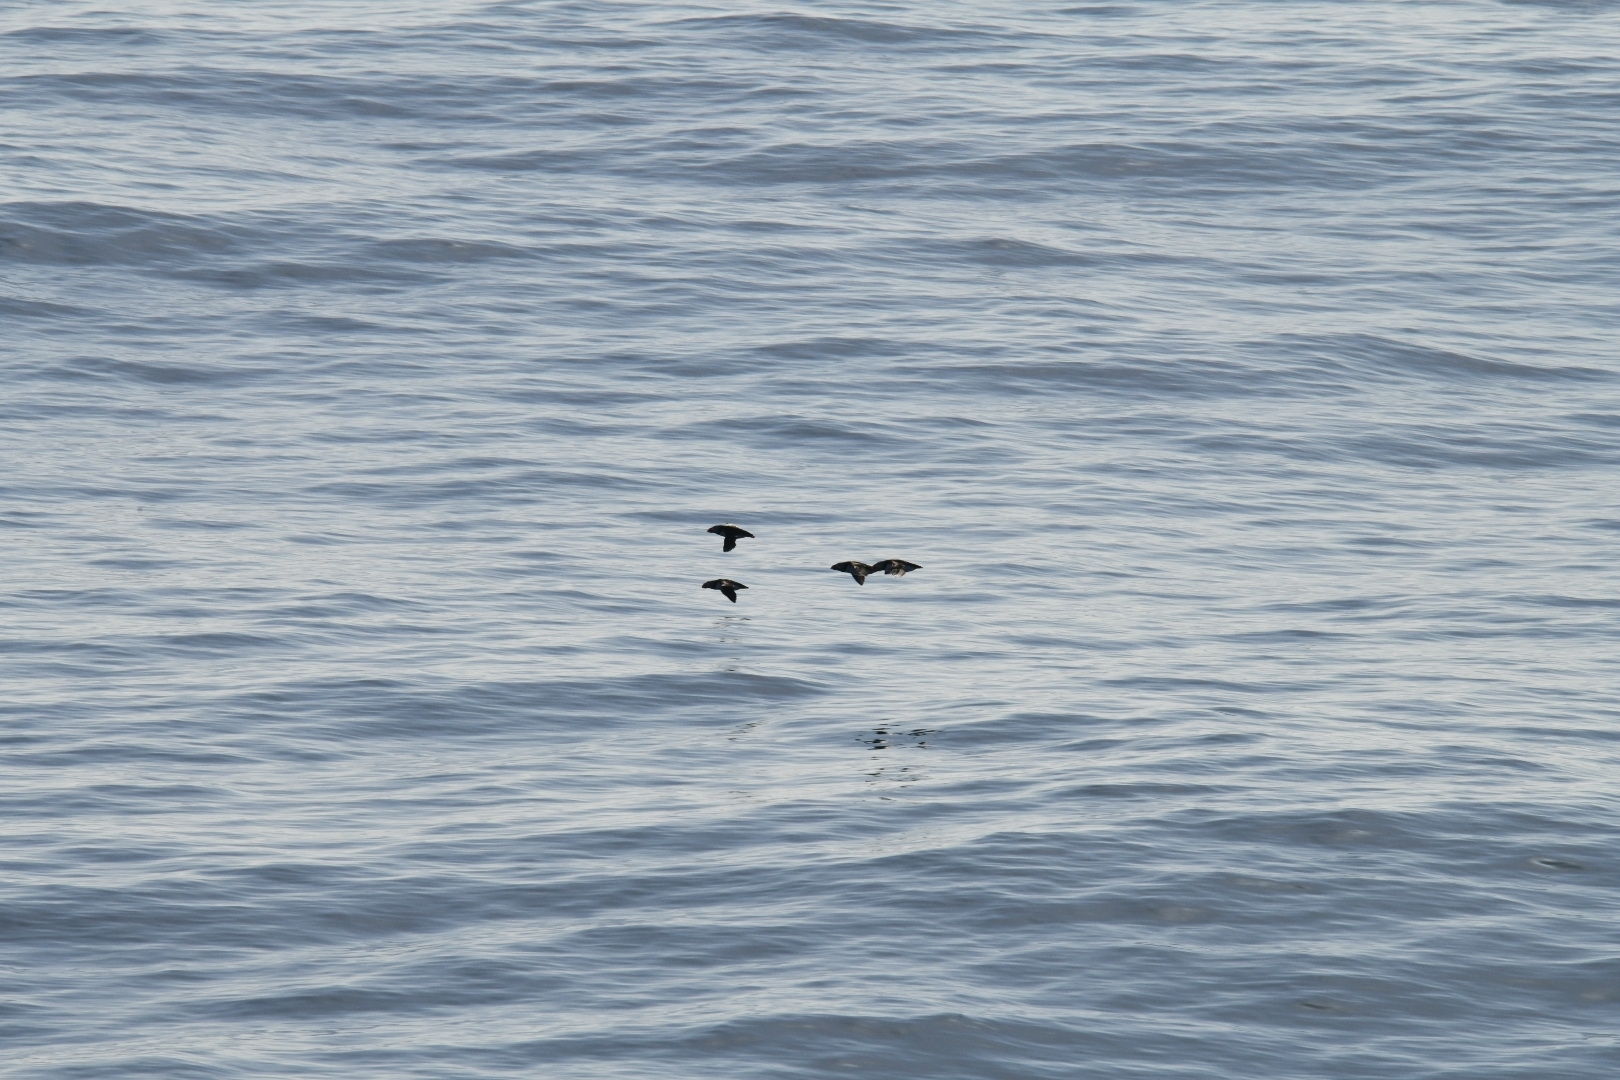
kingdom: Animalia
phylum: Chordata
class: Aves
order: Charadriiformes
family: Alcidae
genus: Fratercula
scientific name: Fratercula arctica
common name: Atlantic puffin
